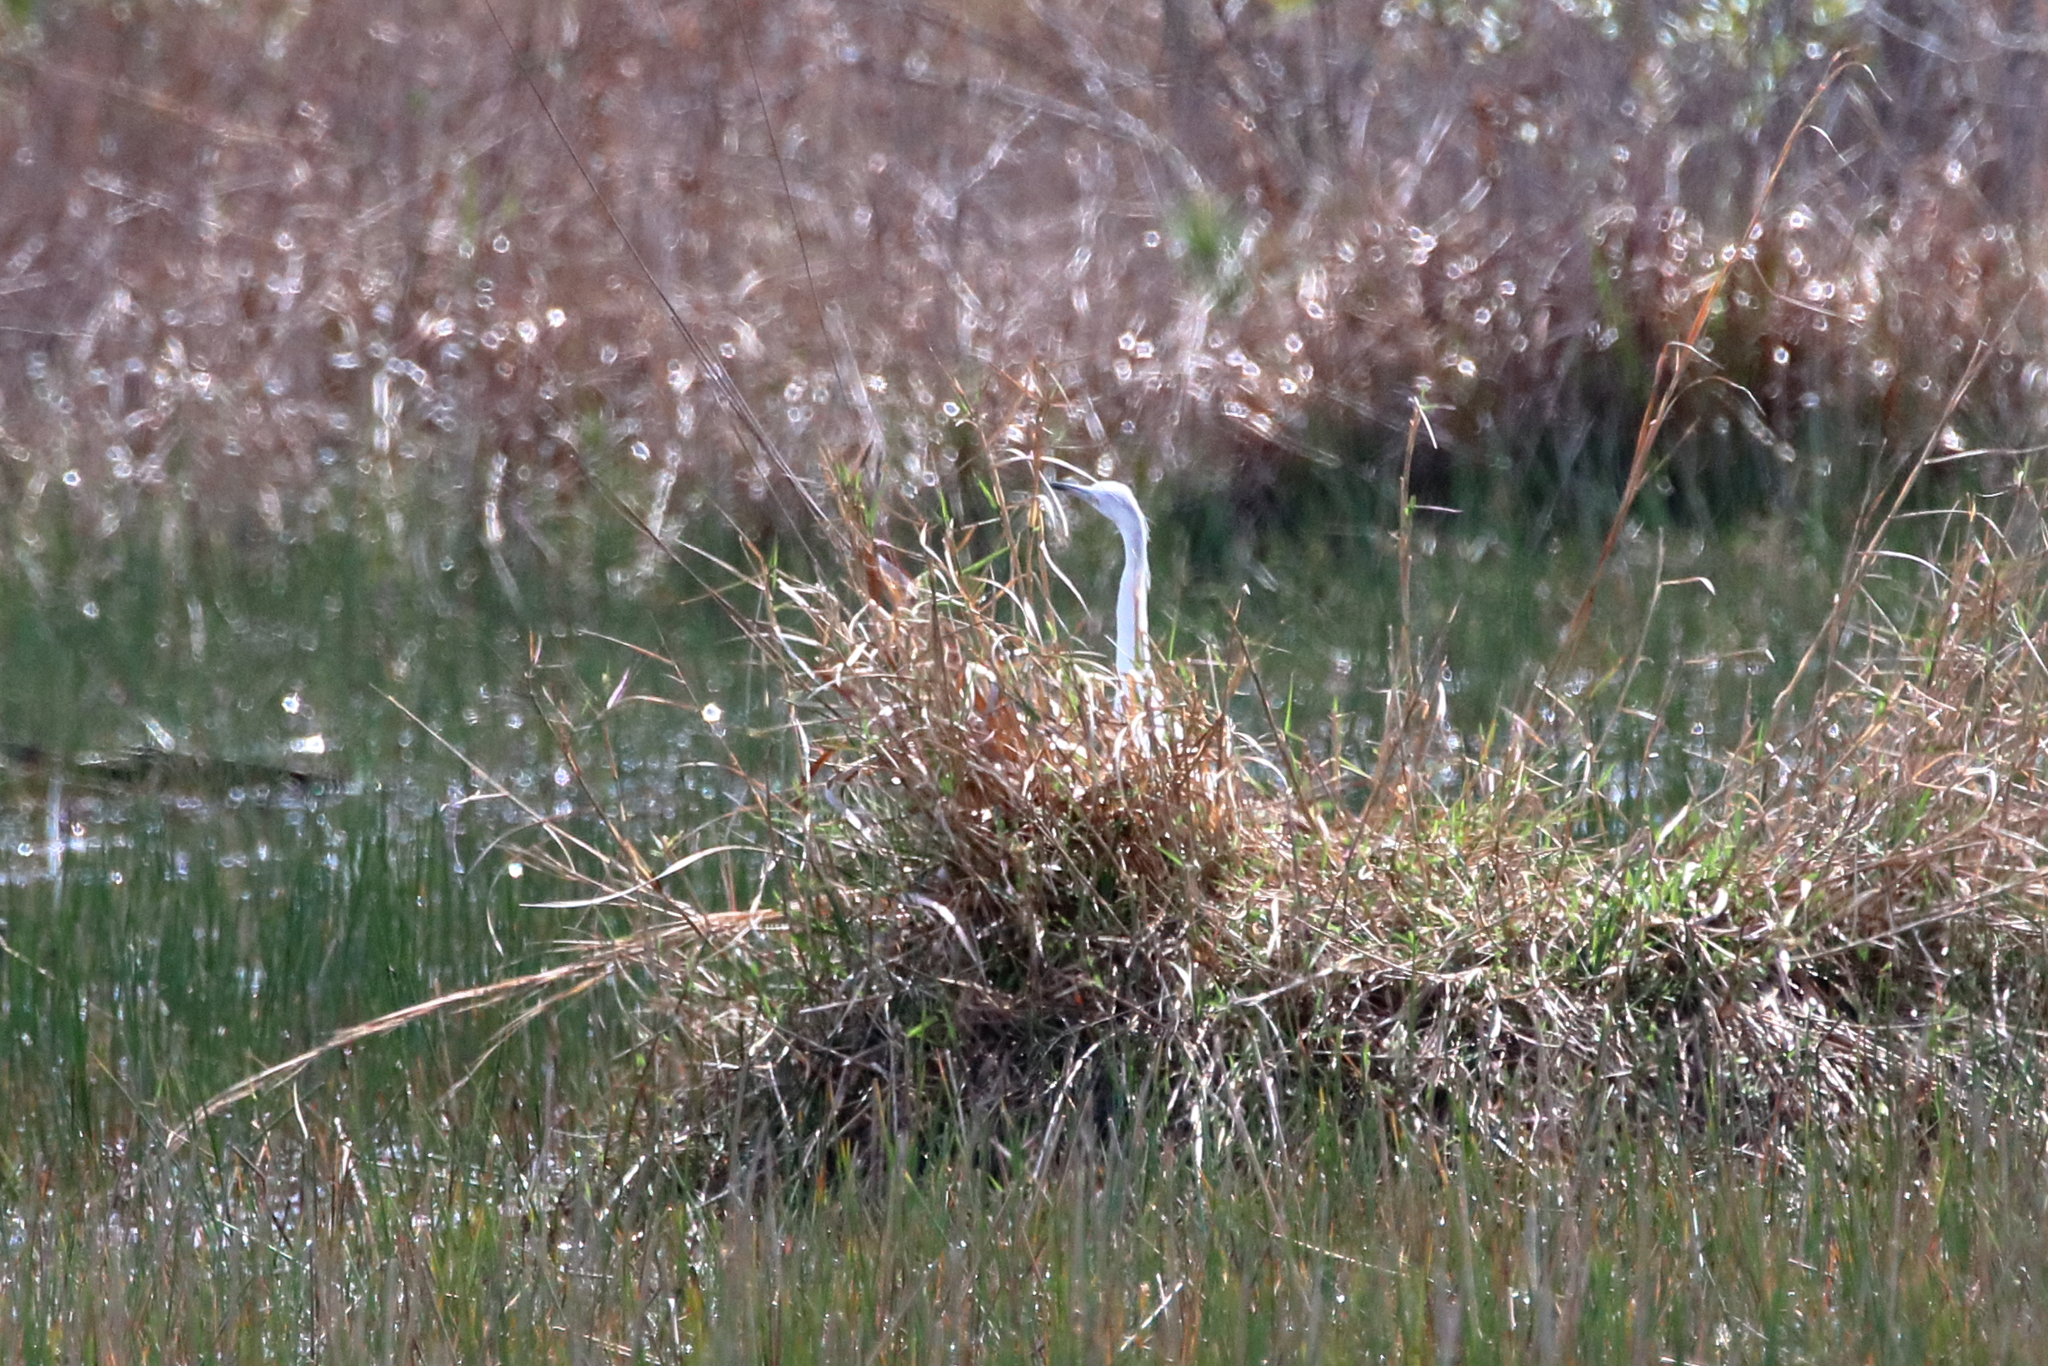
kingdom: Animalia
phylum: Chordata
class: Aves
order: Pelecaniformes
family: Ardeidae
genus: Egretta
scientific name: Egretta caerulea
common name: Little blue heron
